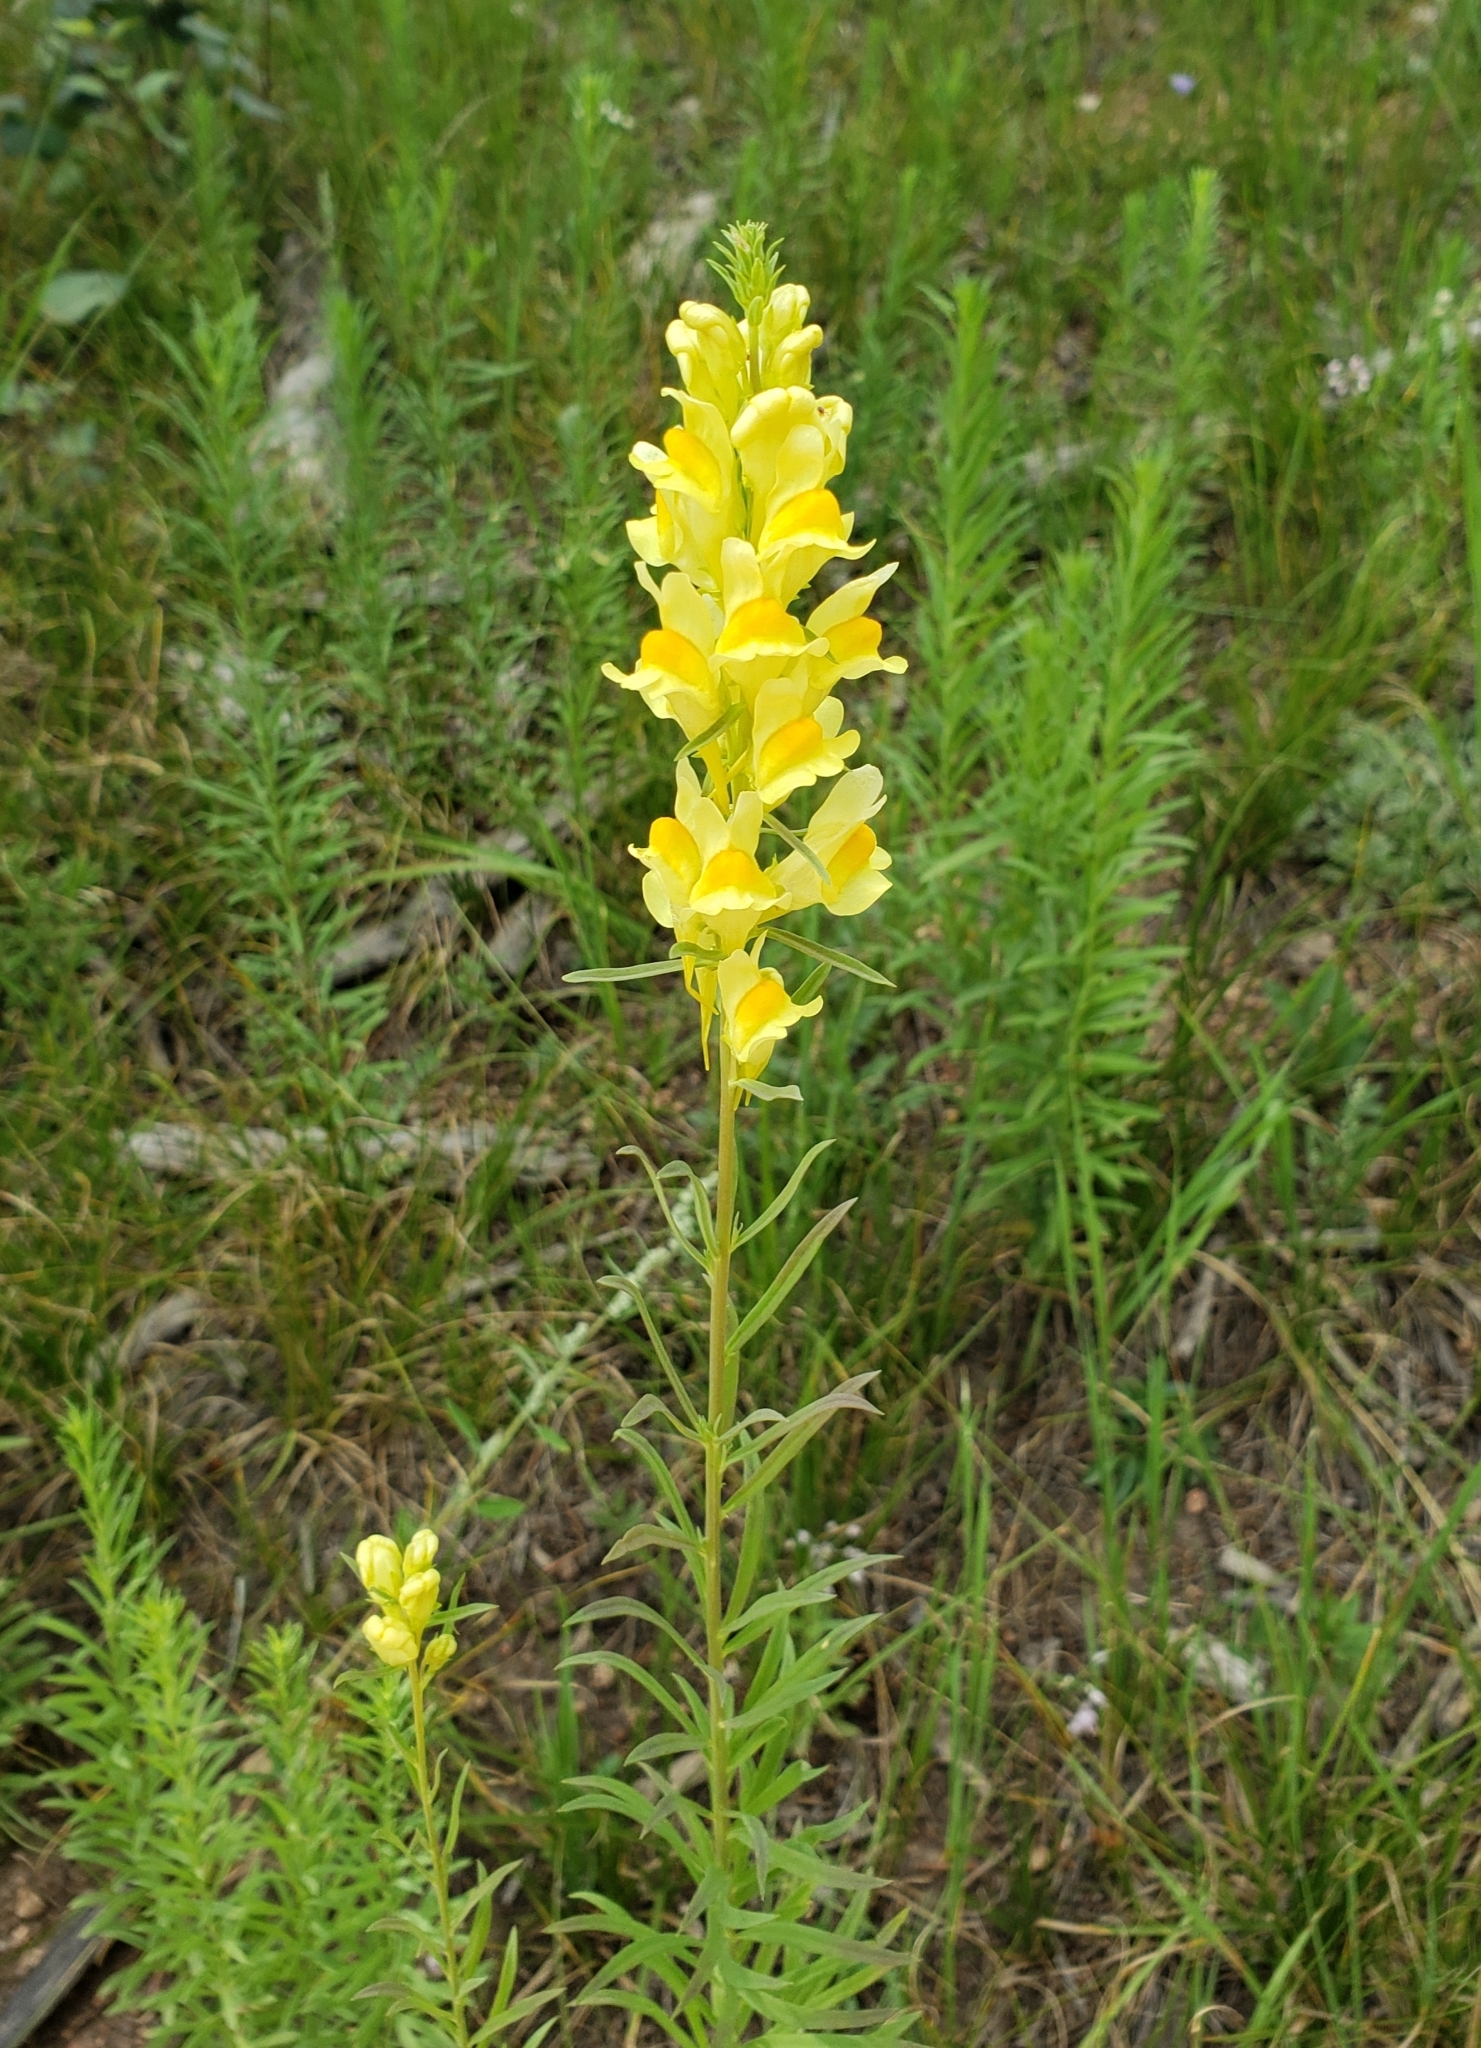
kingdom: Plantae
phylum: Tracheophyta
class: Magnoliopsida
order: Lamiales
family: Plantaginaceae
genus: Linaria
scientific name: Linaria vulgaris
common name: Butter and eggs
